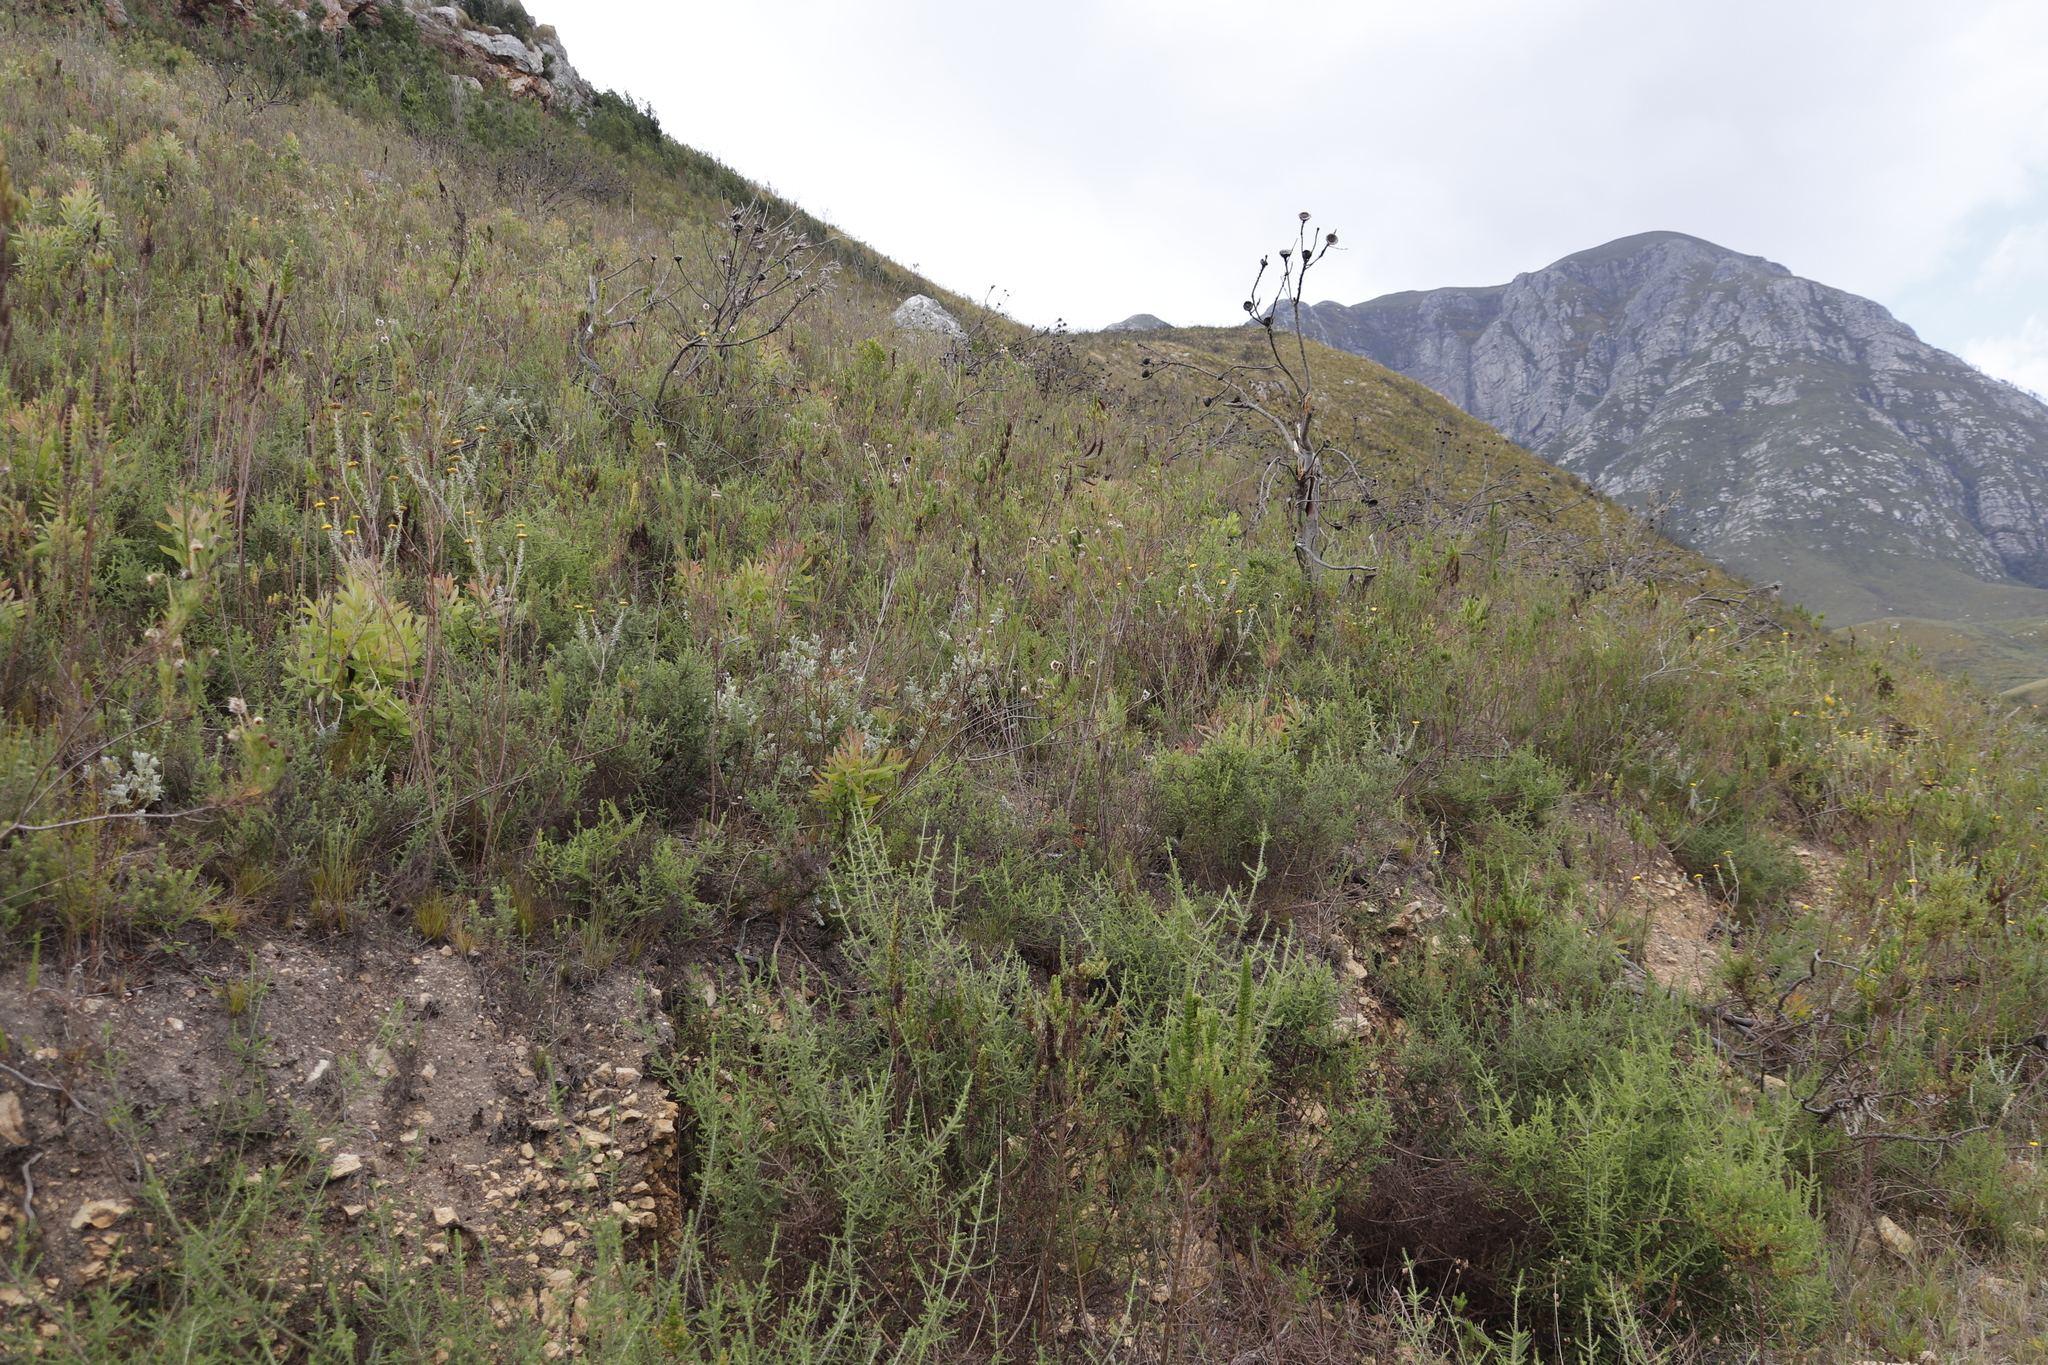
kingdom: Plantae
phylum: Tracheophyta
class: Magnoliopsida
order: Asterales
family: Asteraceae
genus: Seriphium
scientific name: Seriphium plumosum
